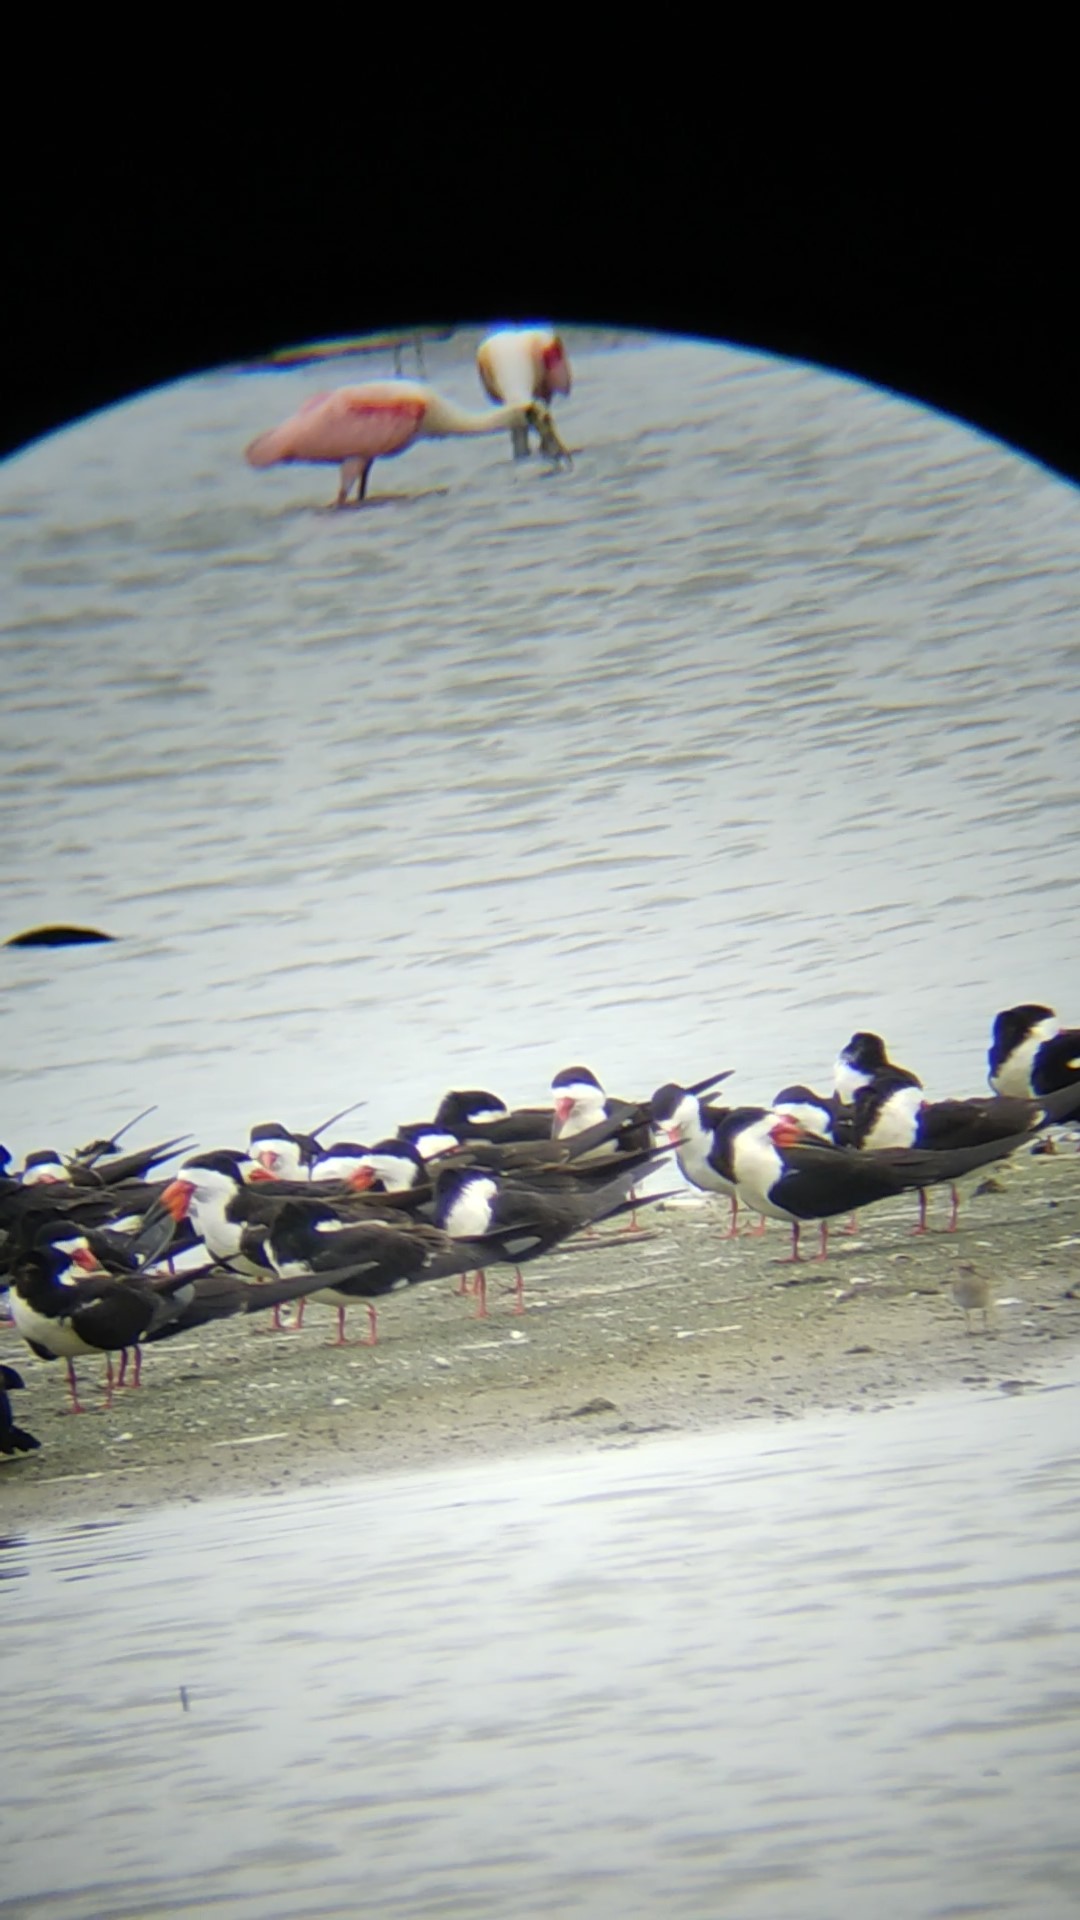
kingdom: Animalia
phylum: Chordata
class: Aves
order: Charadriiformes
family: Laridae
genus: Rynchops
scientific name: Rynchops niger
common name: Black skimmer
